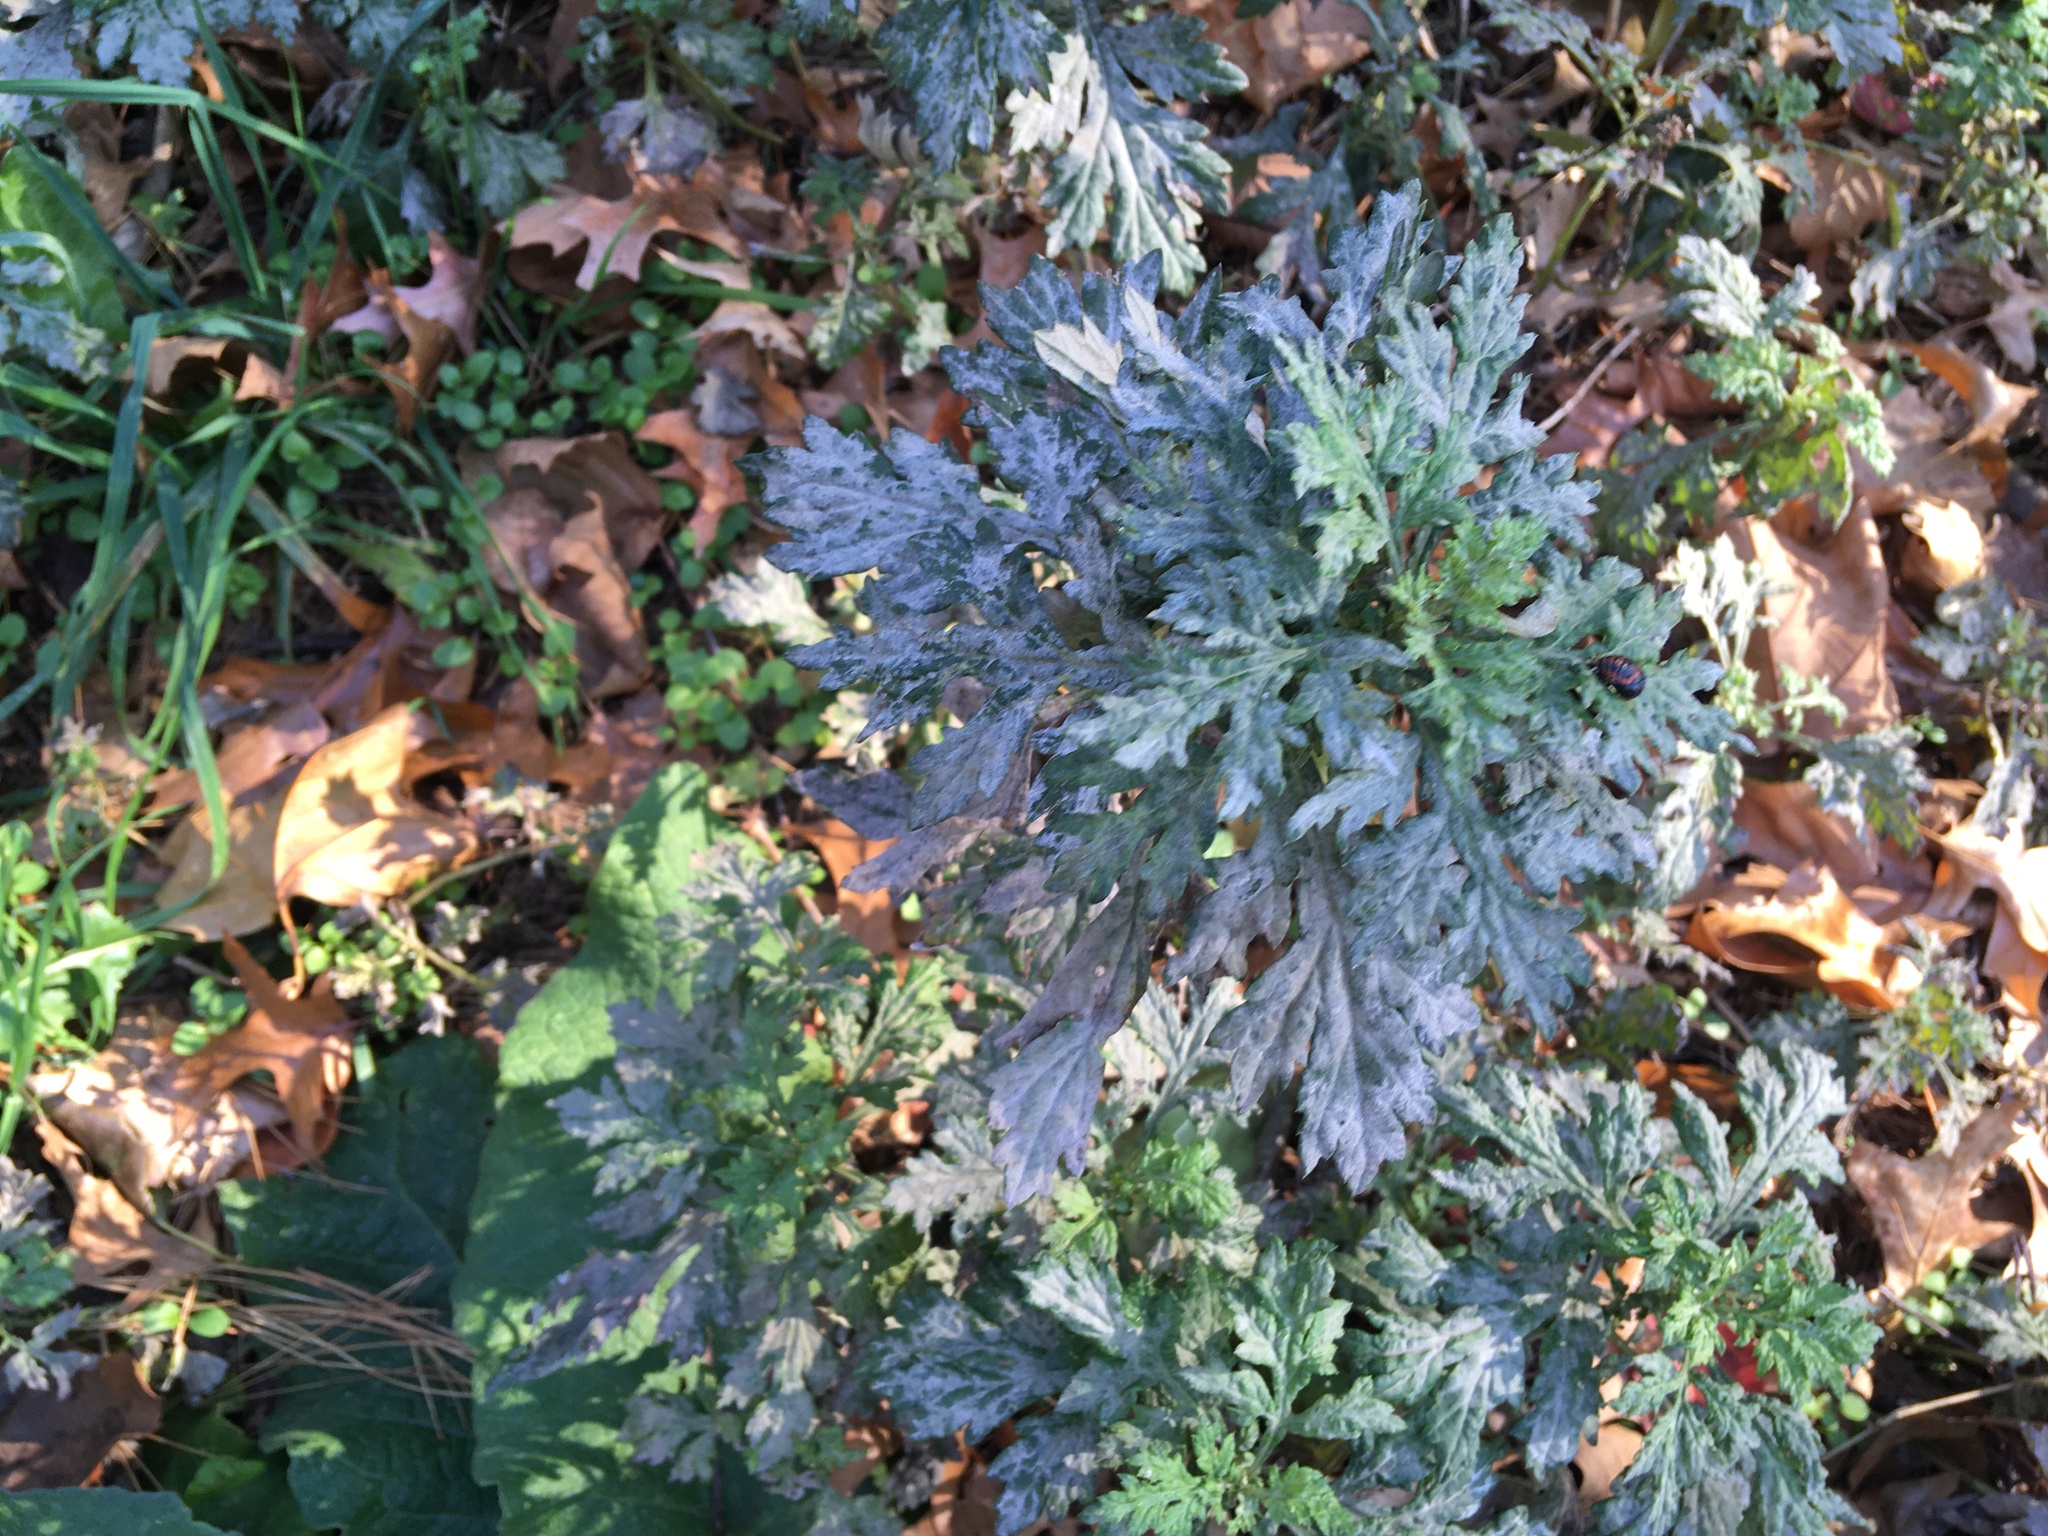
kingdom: Plantae
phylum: Tracheophyta
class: Magnoliopsida
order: Asterales
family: Asteraceae
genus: Artemisia
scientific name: Artemisia vulgaris
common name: Mugwort
